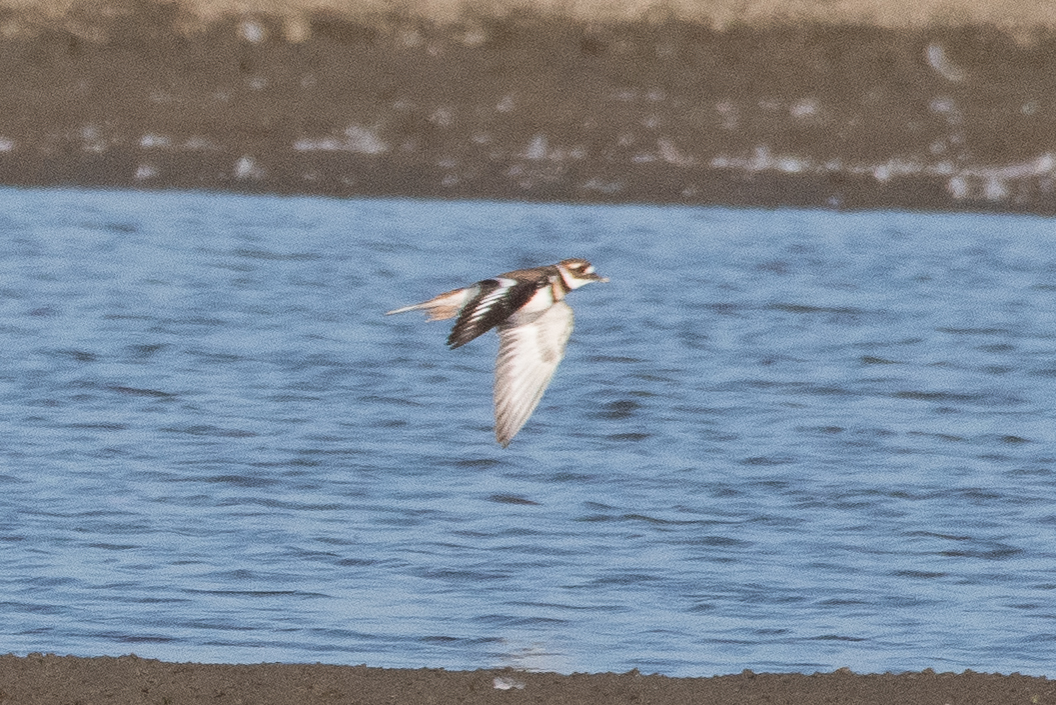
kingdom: Animalia
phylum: Chordata
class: Aves
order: Charadriiformes
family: Charadriidae
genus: Charadrius
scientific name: Charadrius vociferus
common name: Killdeer
